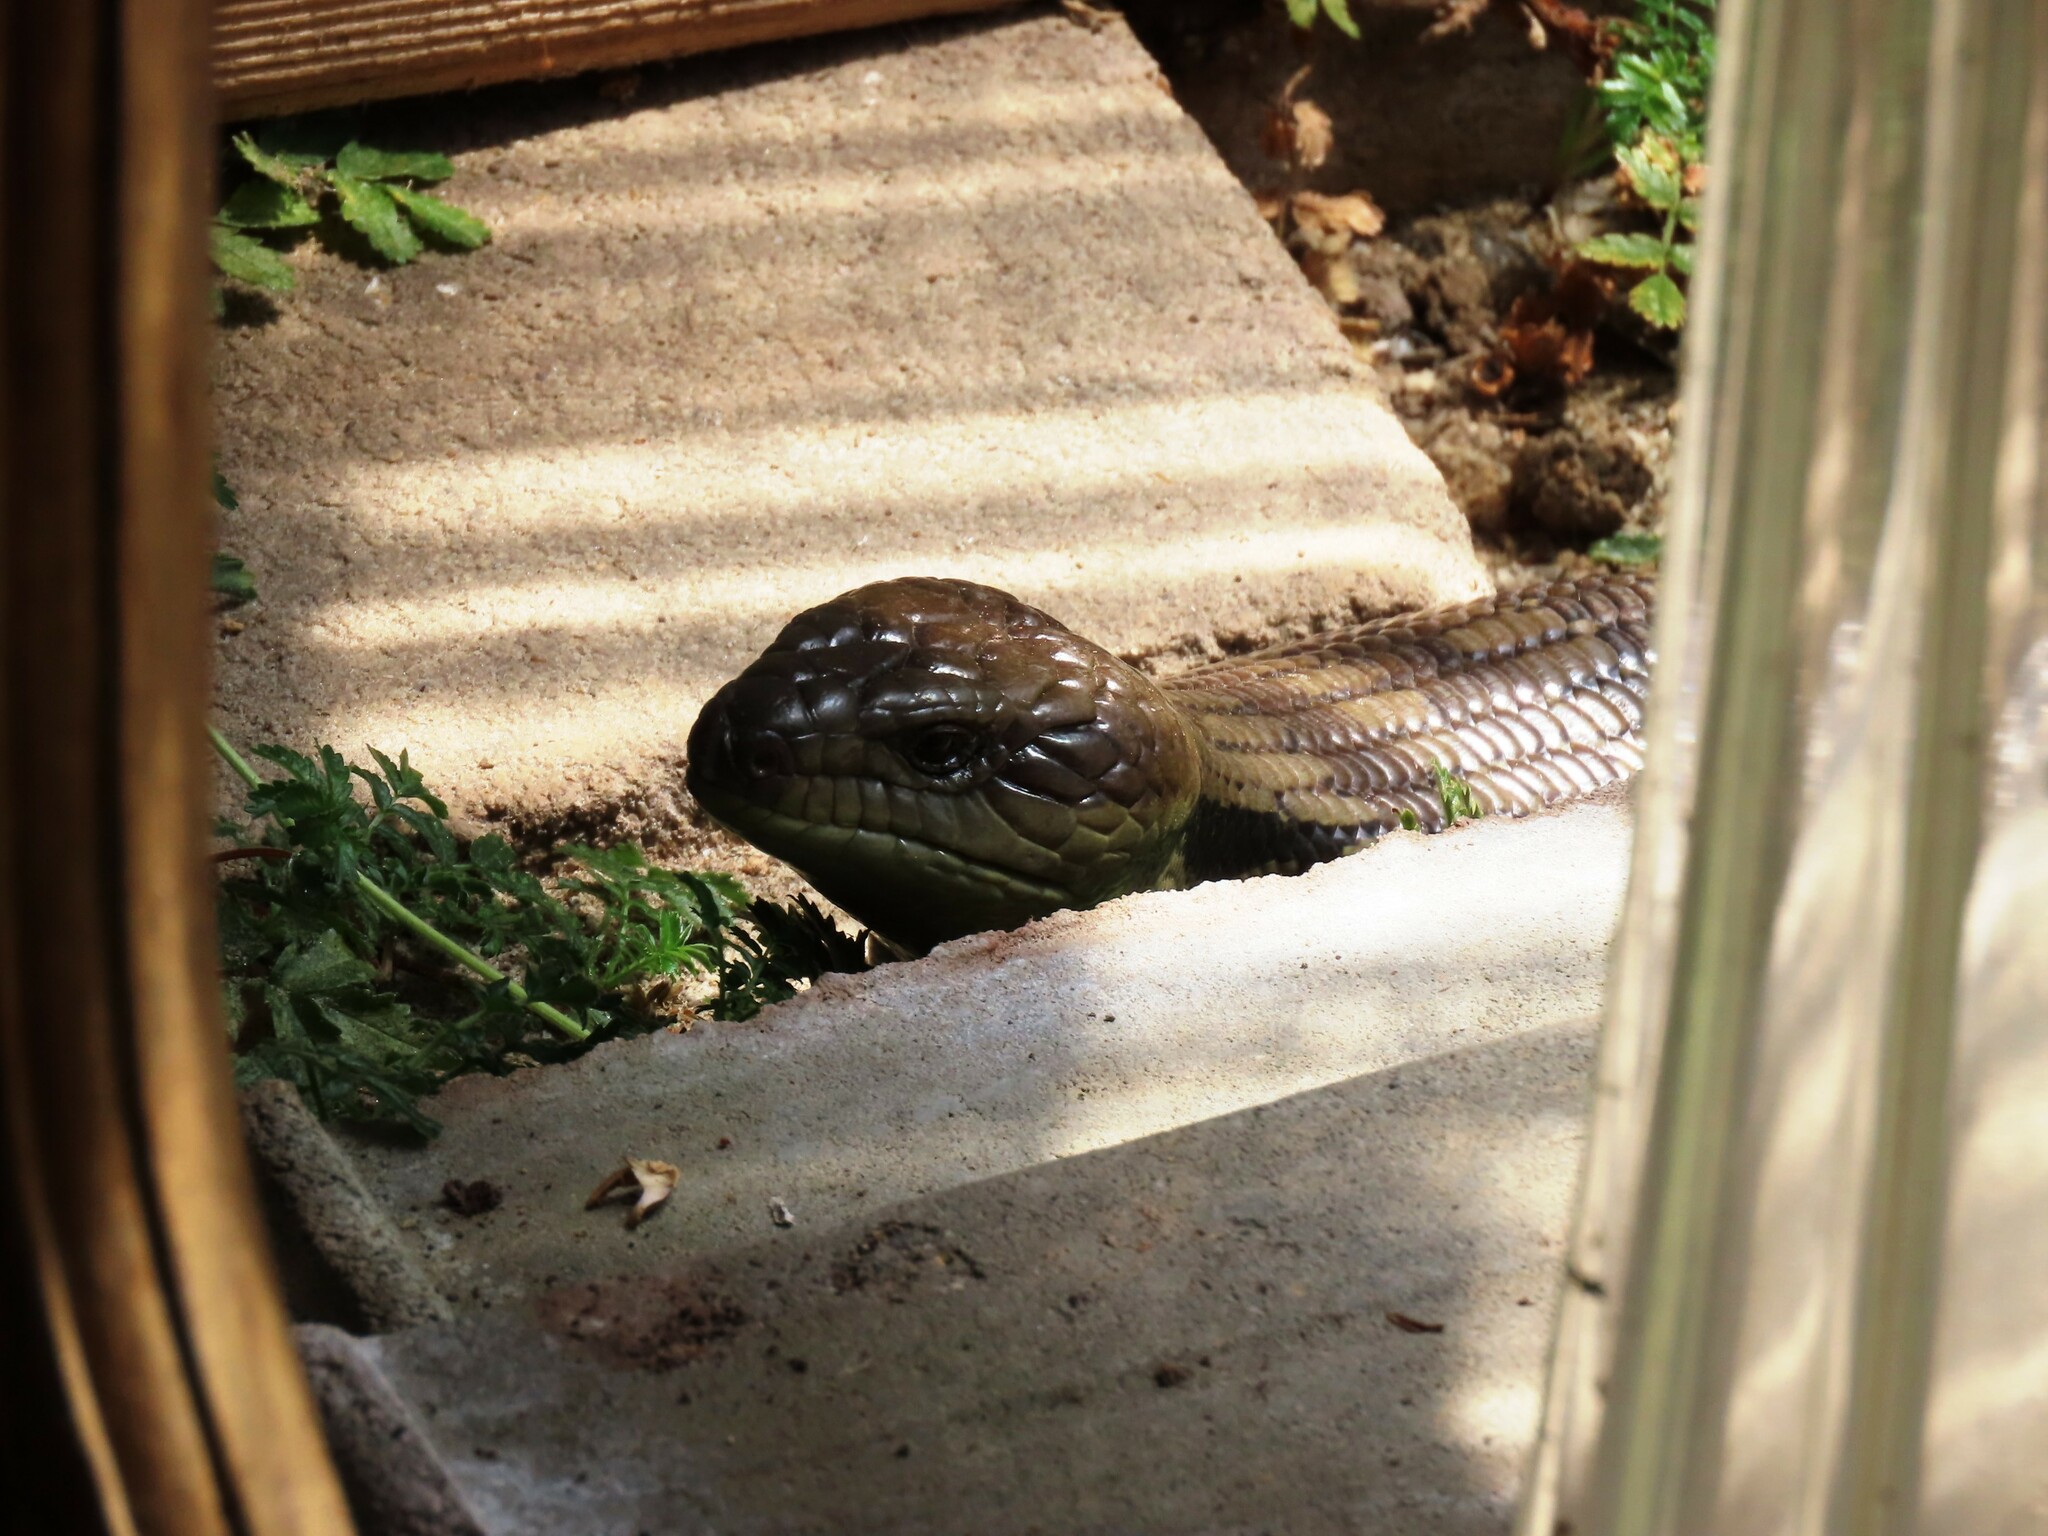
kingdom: Animalia
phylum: Chordata
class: Squamata
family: Scincidae
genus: Tiliqua
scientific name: Tiliqua scincoides
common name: Common bluetongue
